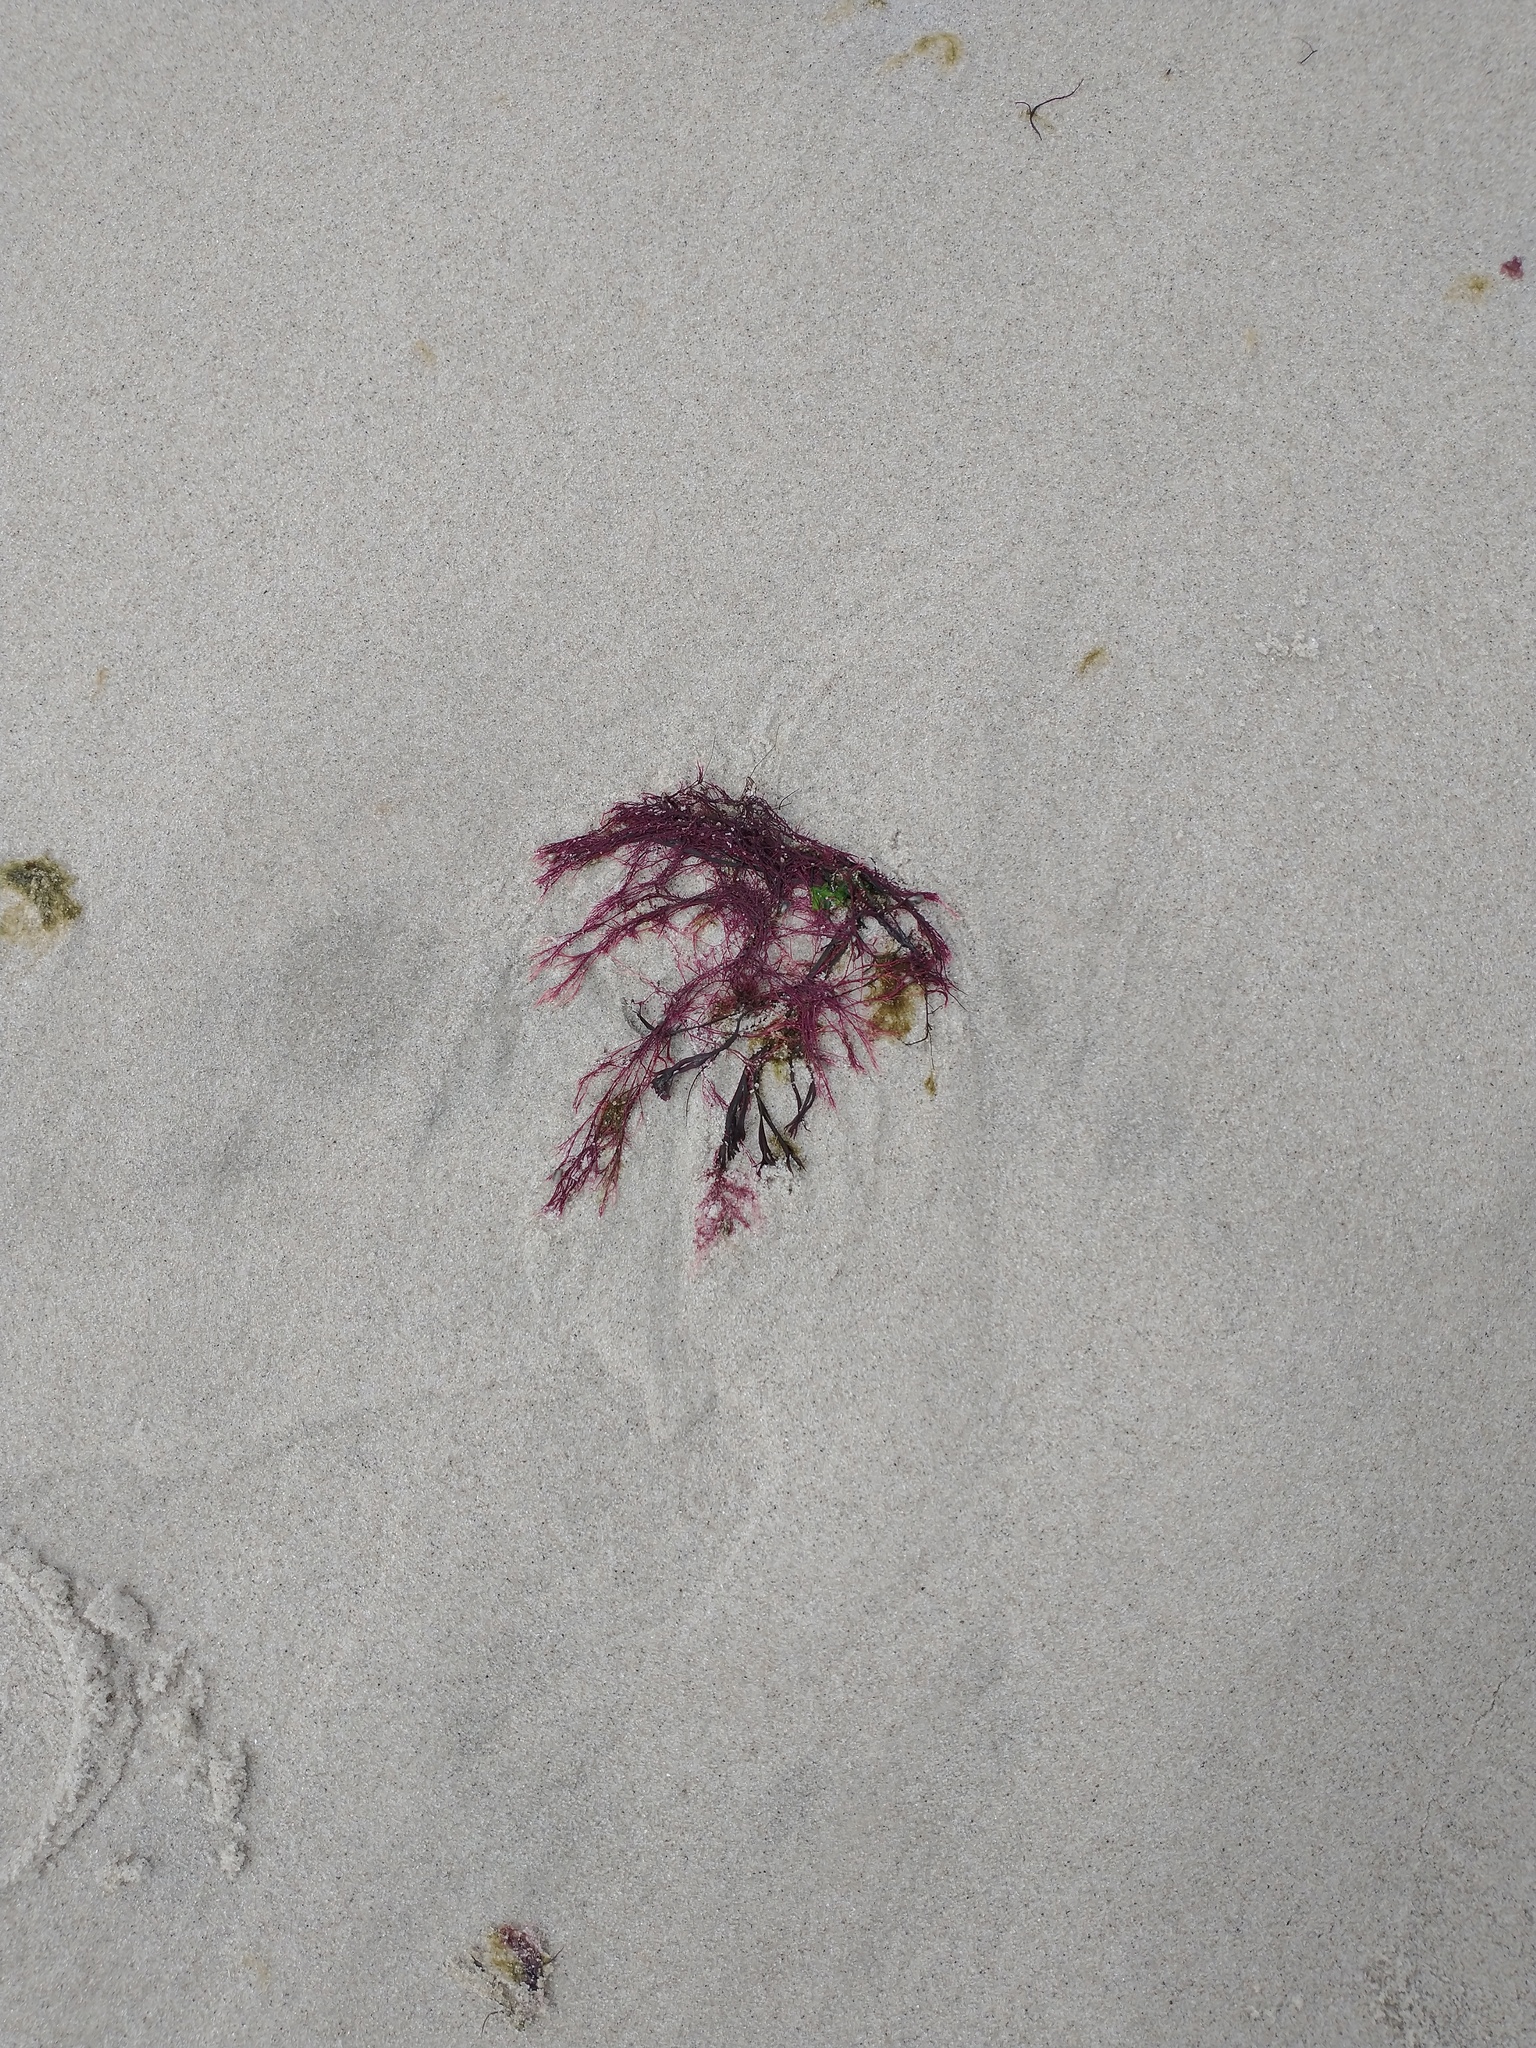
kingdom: Plantae
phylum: Rhodophyta
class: Florideophyceae
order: Ceramiales
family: Dasyaceae
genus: Dasysiphonia
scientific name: Dasysiphonia japonica
